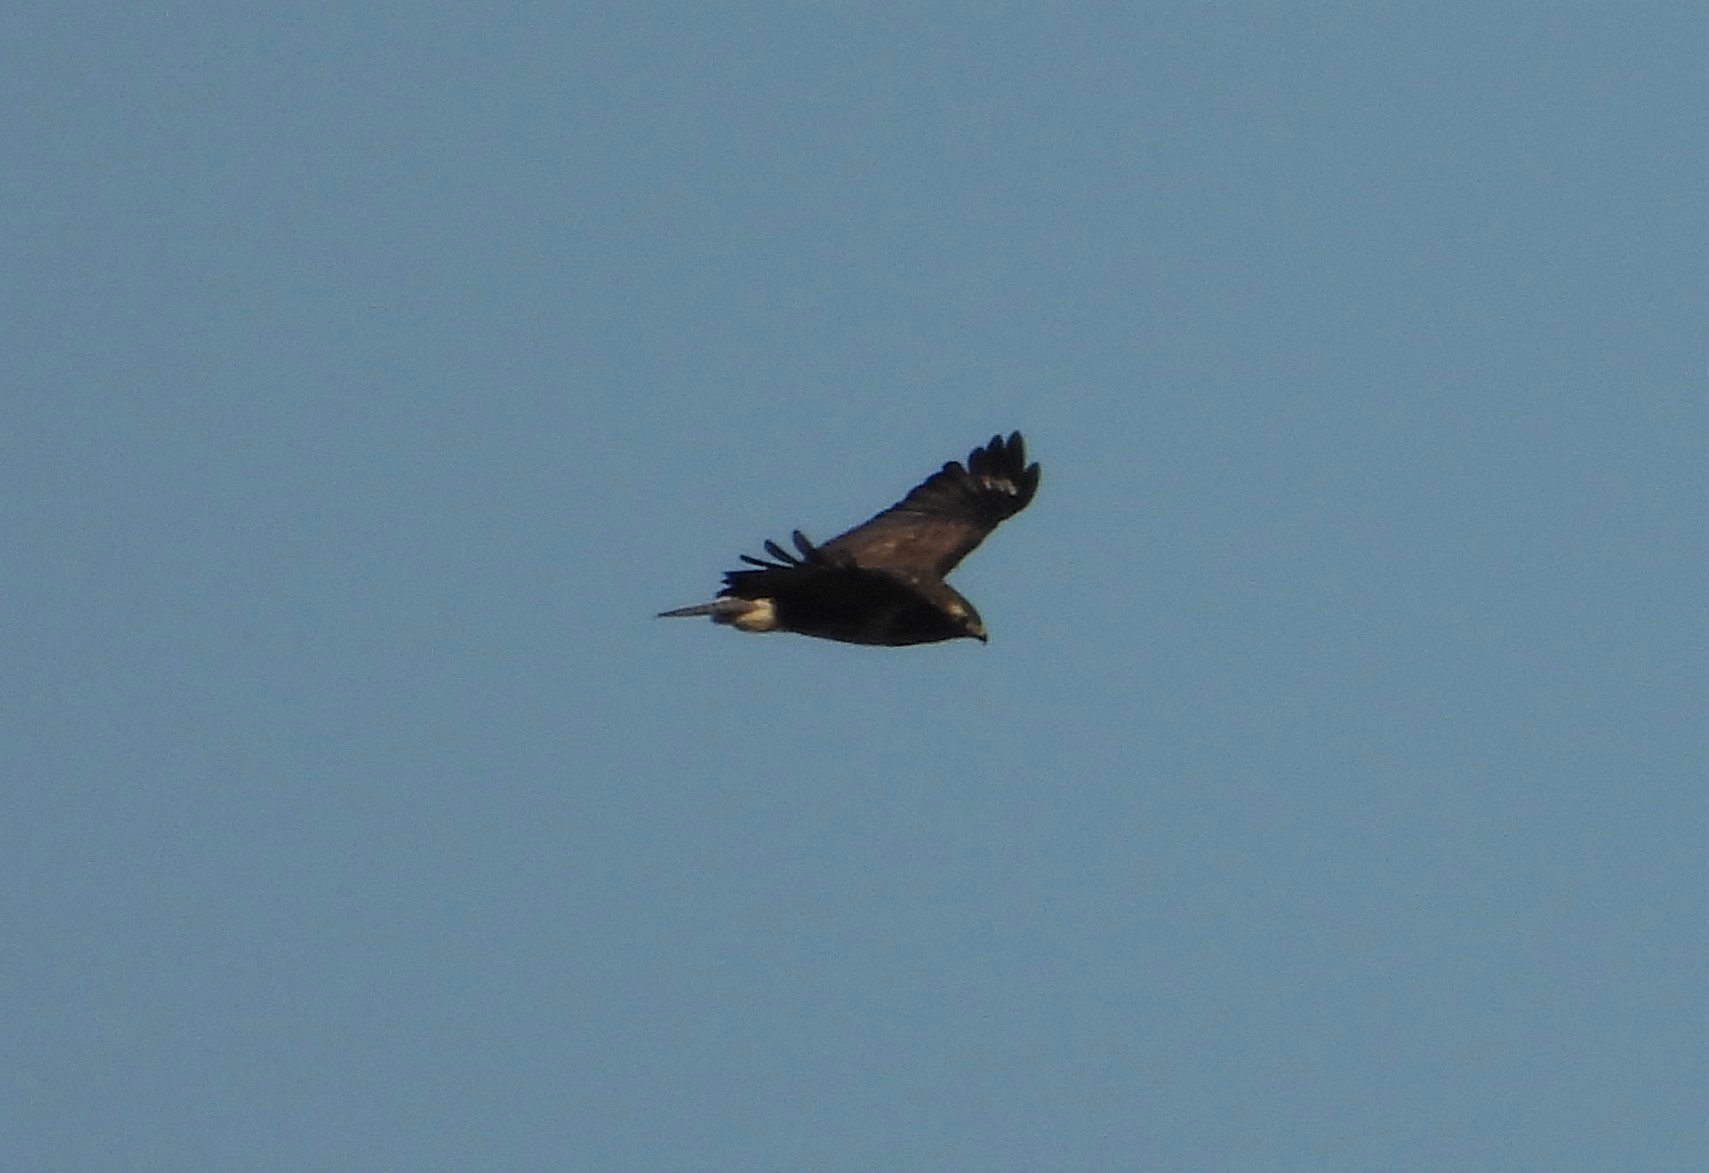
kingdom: Animalia
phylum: Chordata
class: Aves
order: Accipitriformes
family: Accipitridae
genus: Buteo
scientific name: Buteo buteo
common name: Common buzzard
